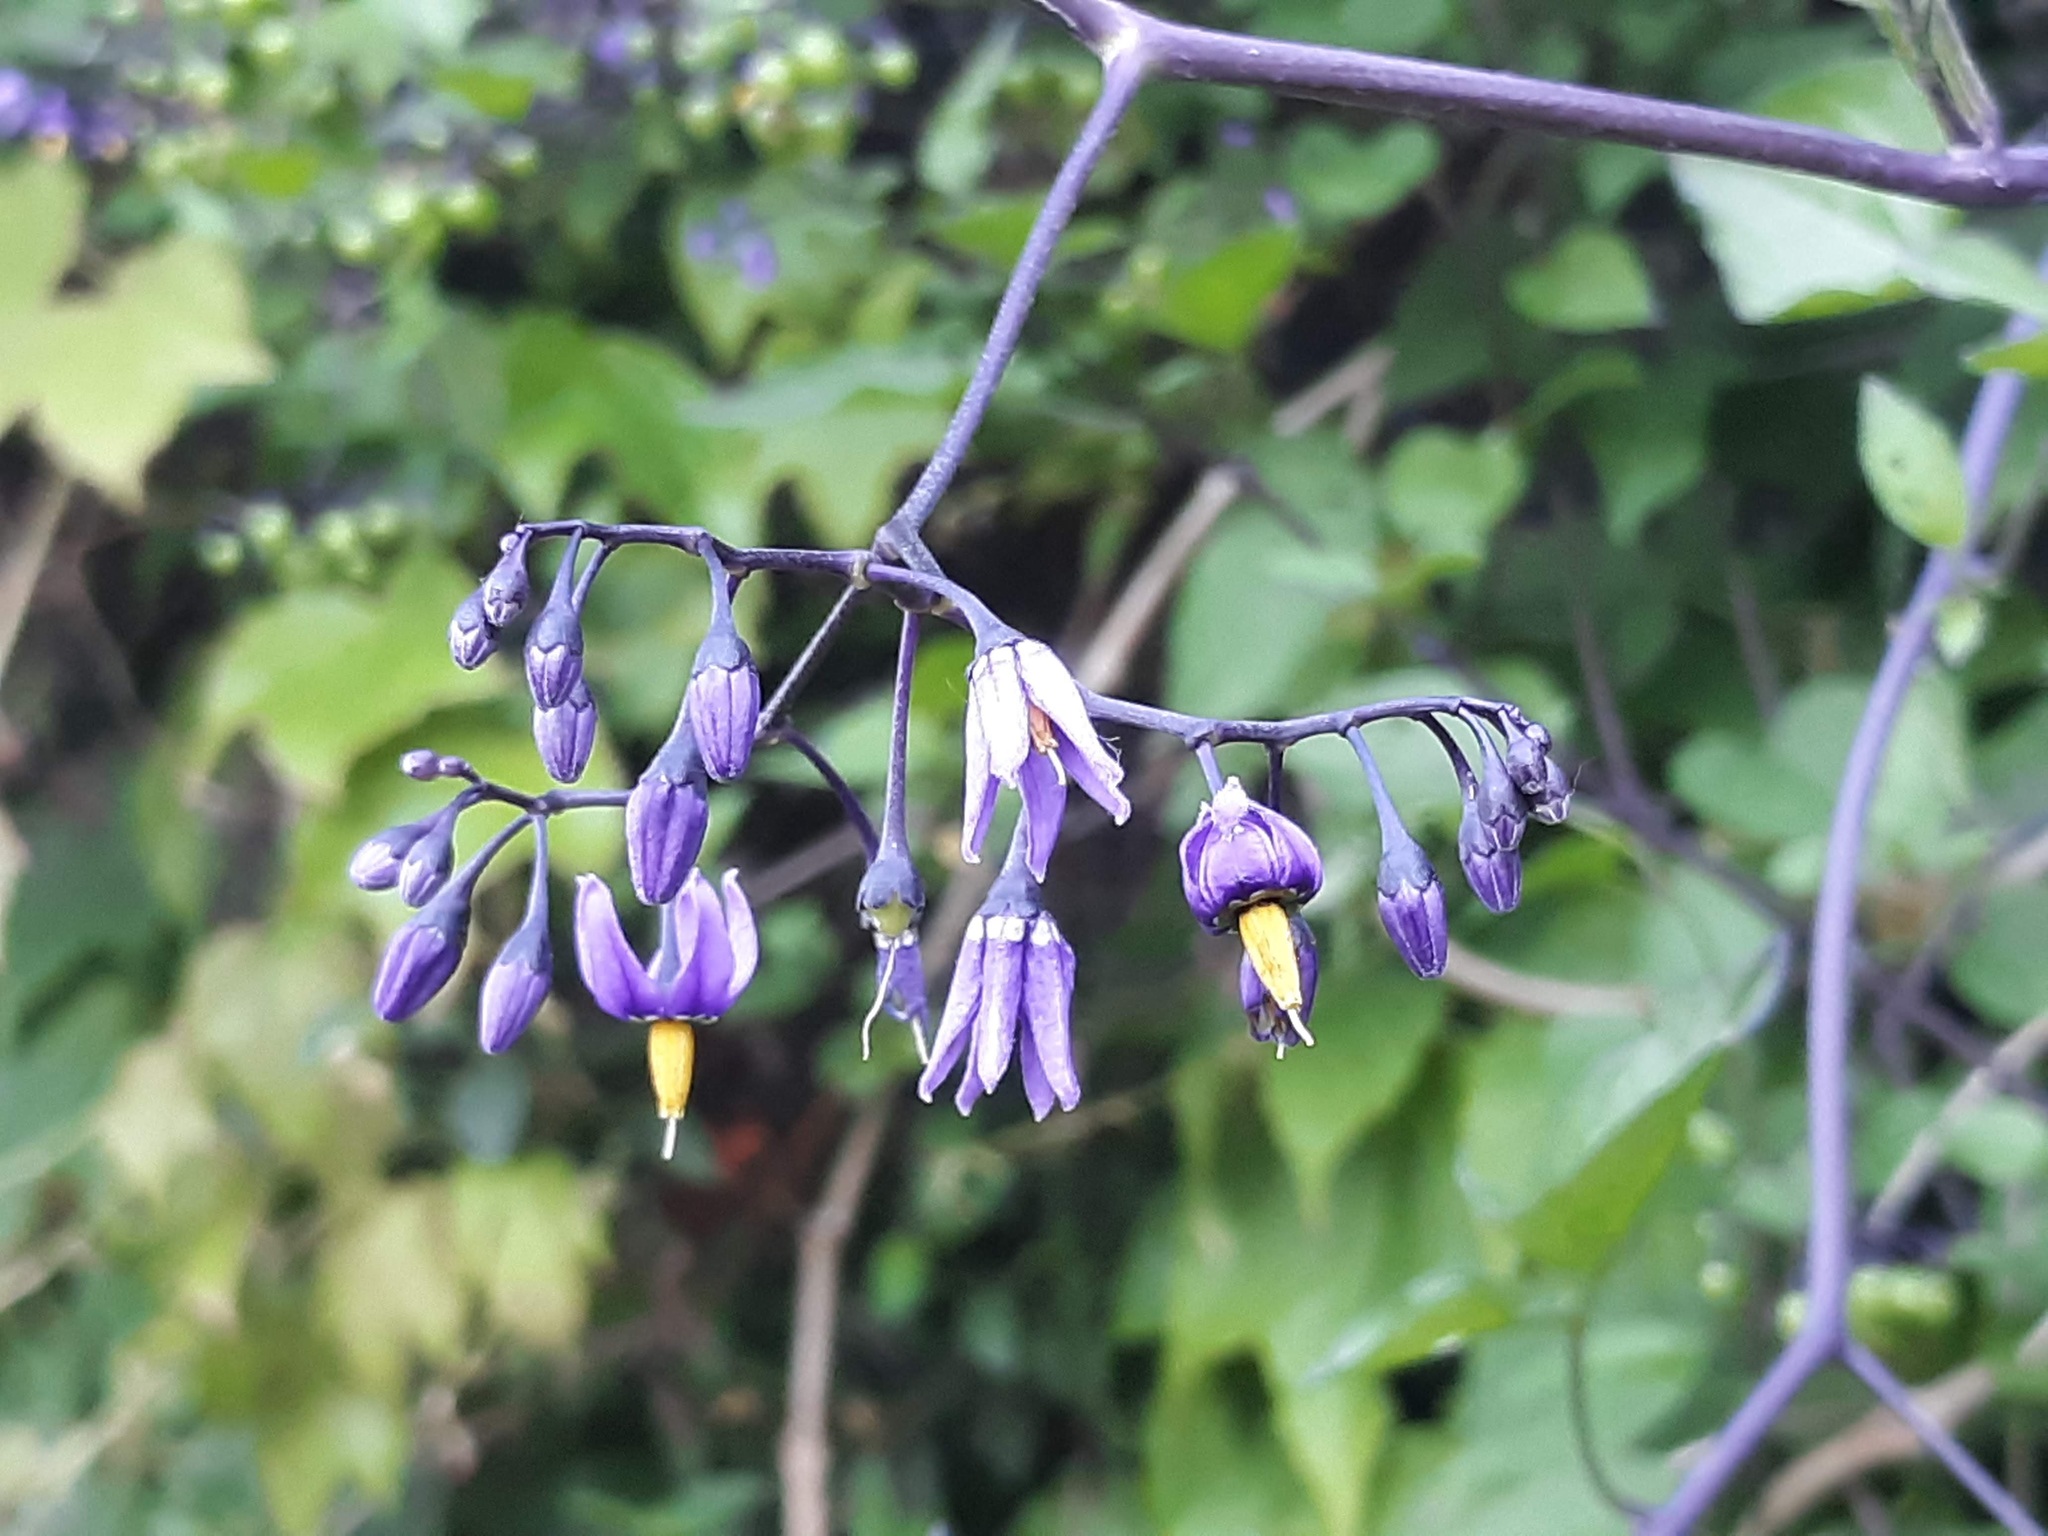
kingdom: Plantae
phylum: Tracheophyta
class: Magnoliopsida
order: Solanales
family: Solanaceae
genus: Solanum
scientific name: Solanum dulcamara
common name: Climbing nightshade
